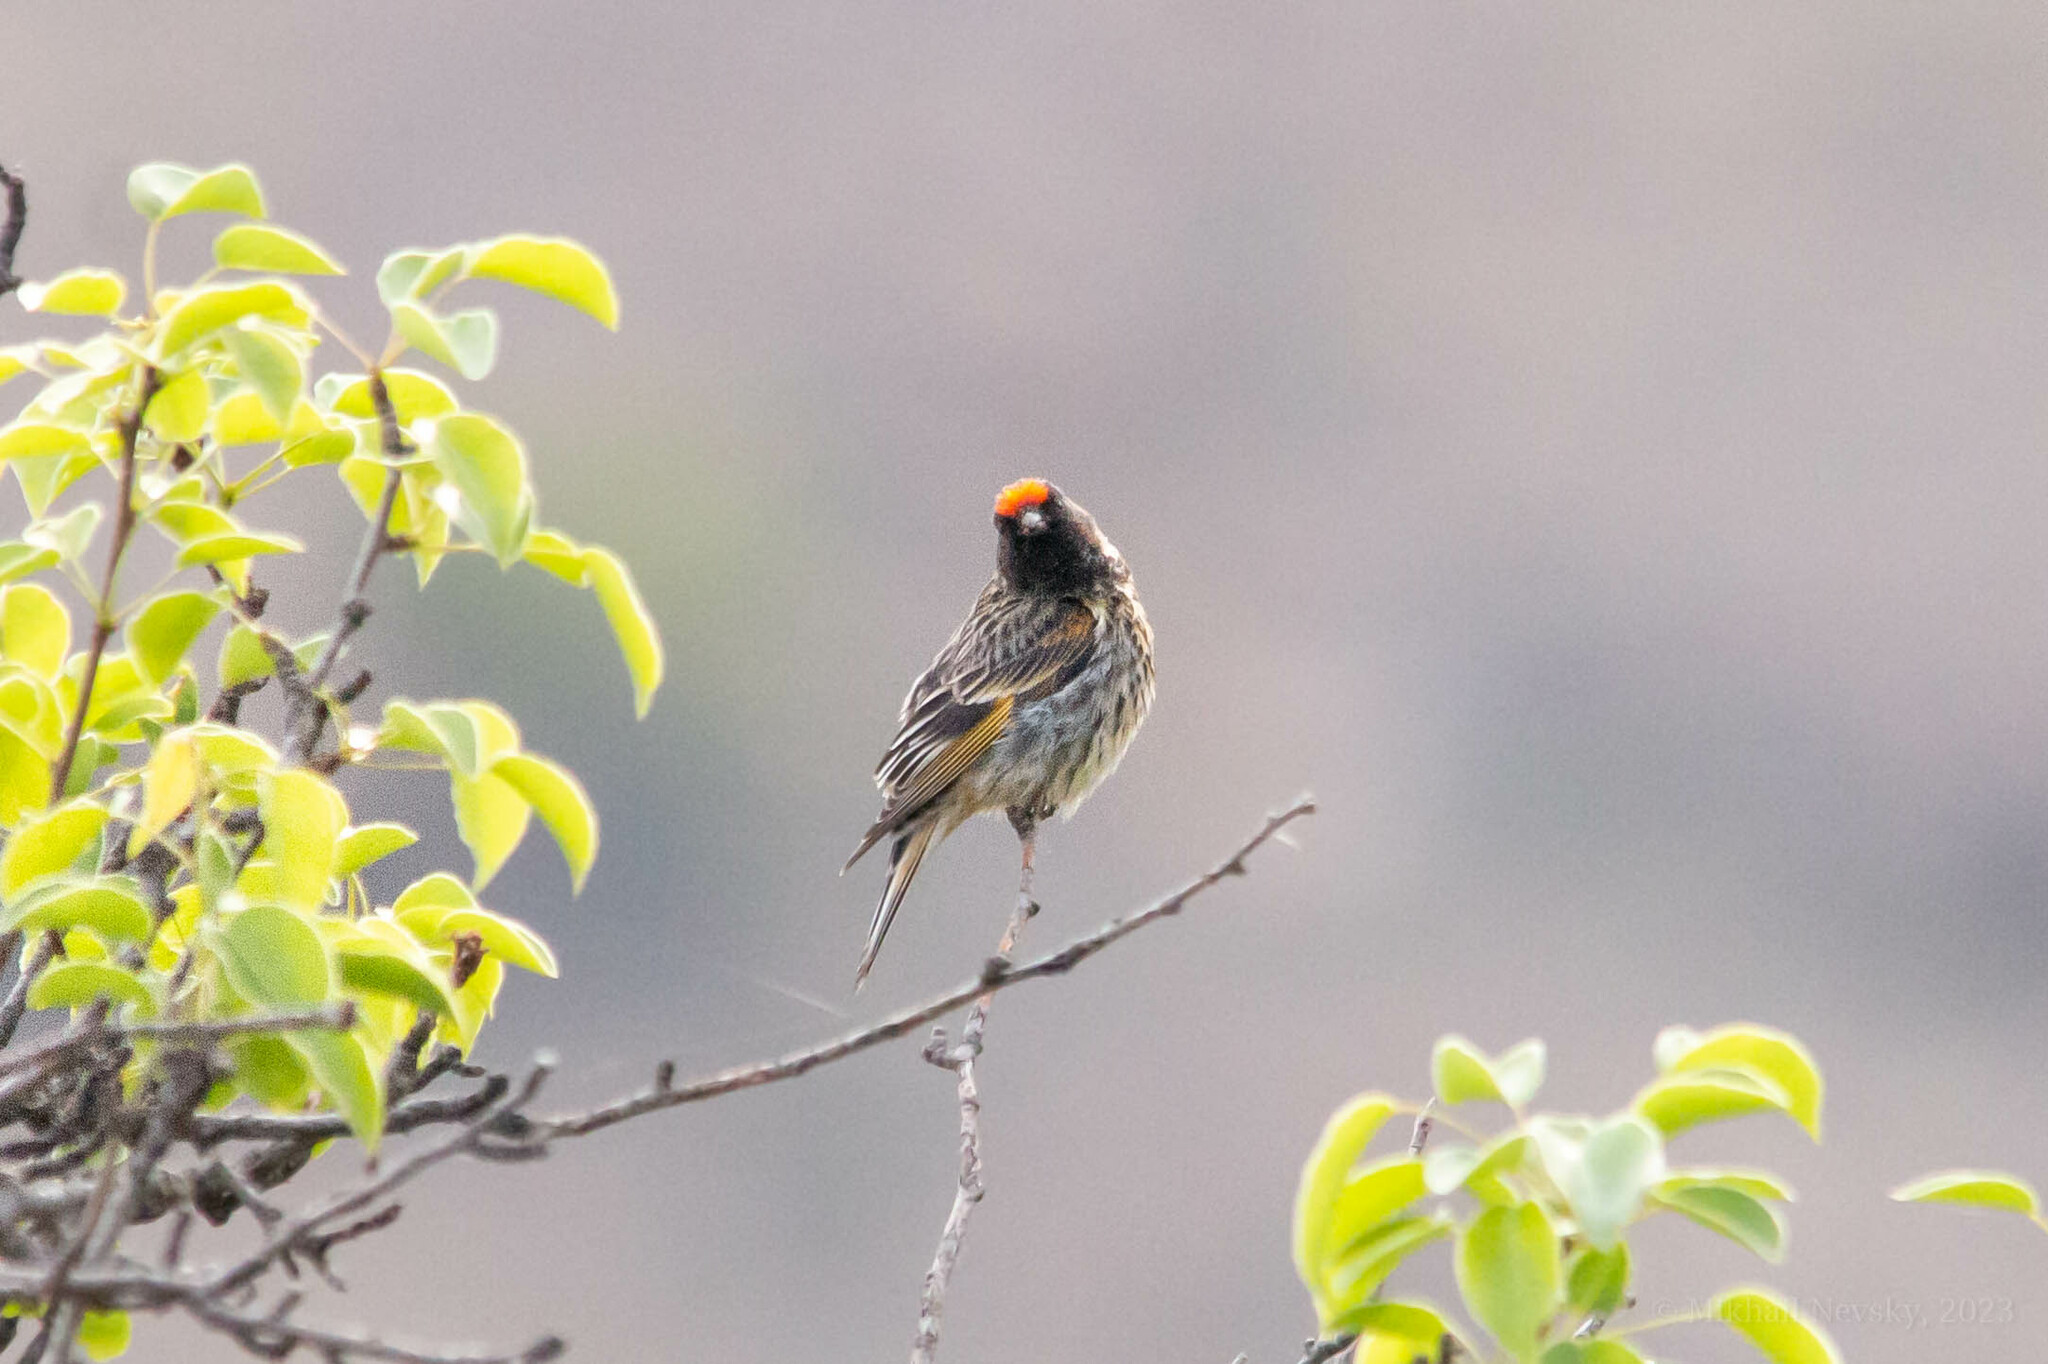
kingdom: Animalia
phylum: Chordata
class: Aves
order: Passeriformes
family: Fringillidae
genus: Serinus
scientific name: Serinus pusillus
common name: Red-fronted serin
